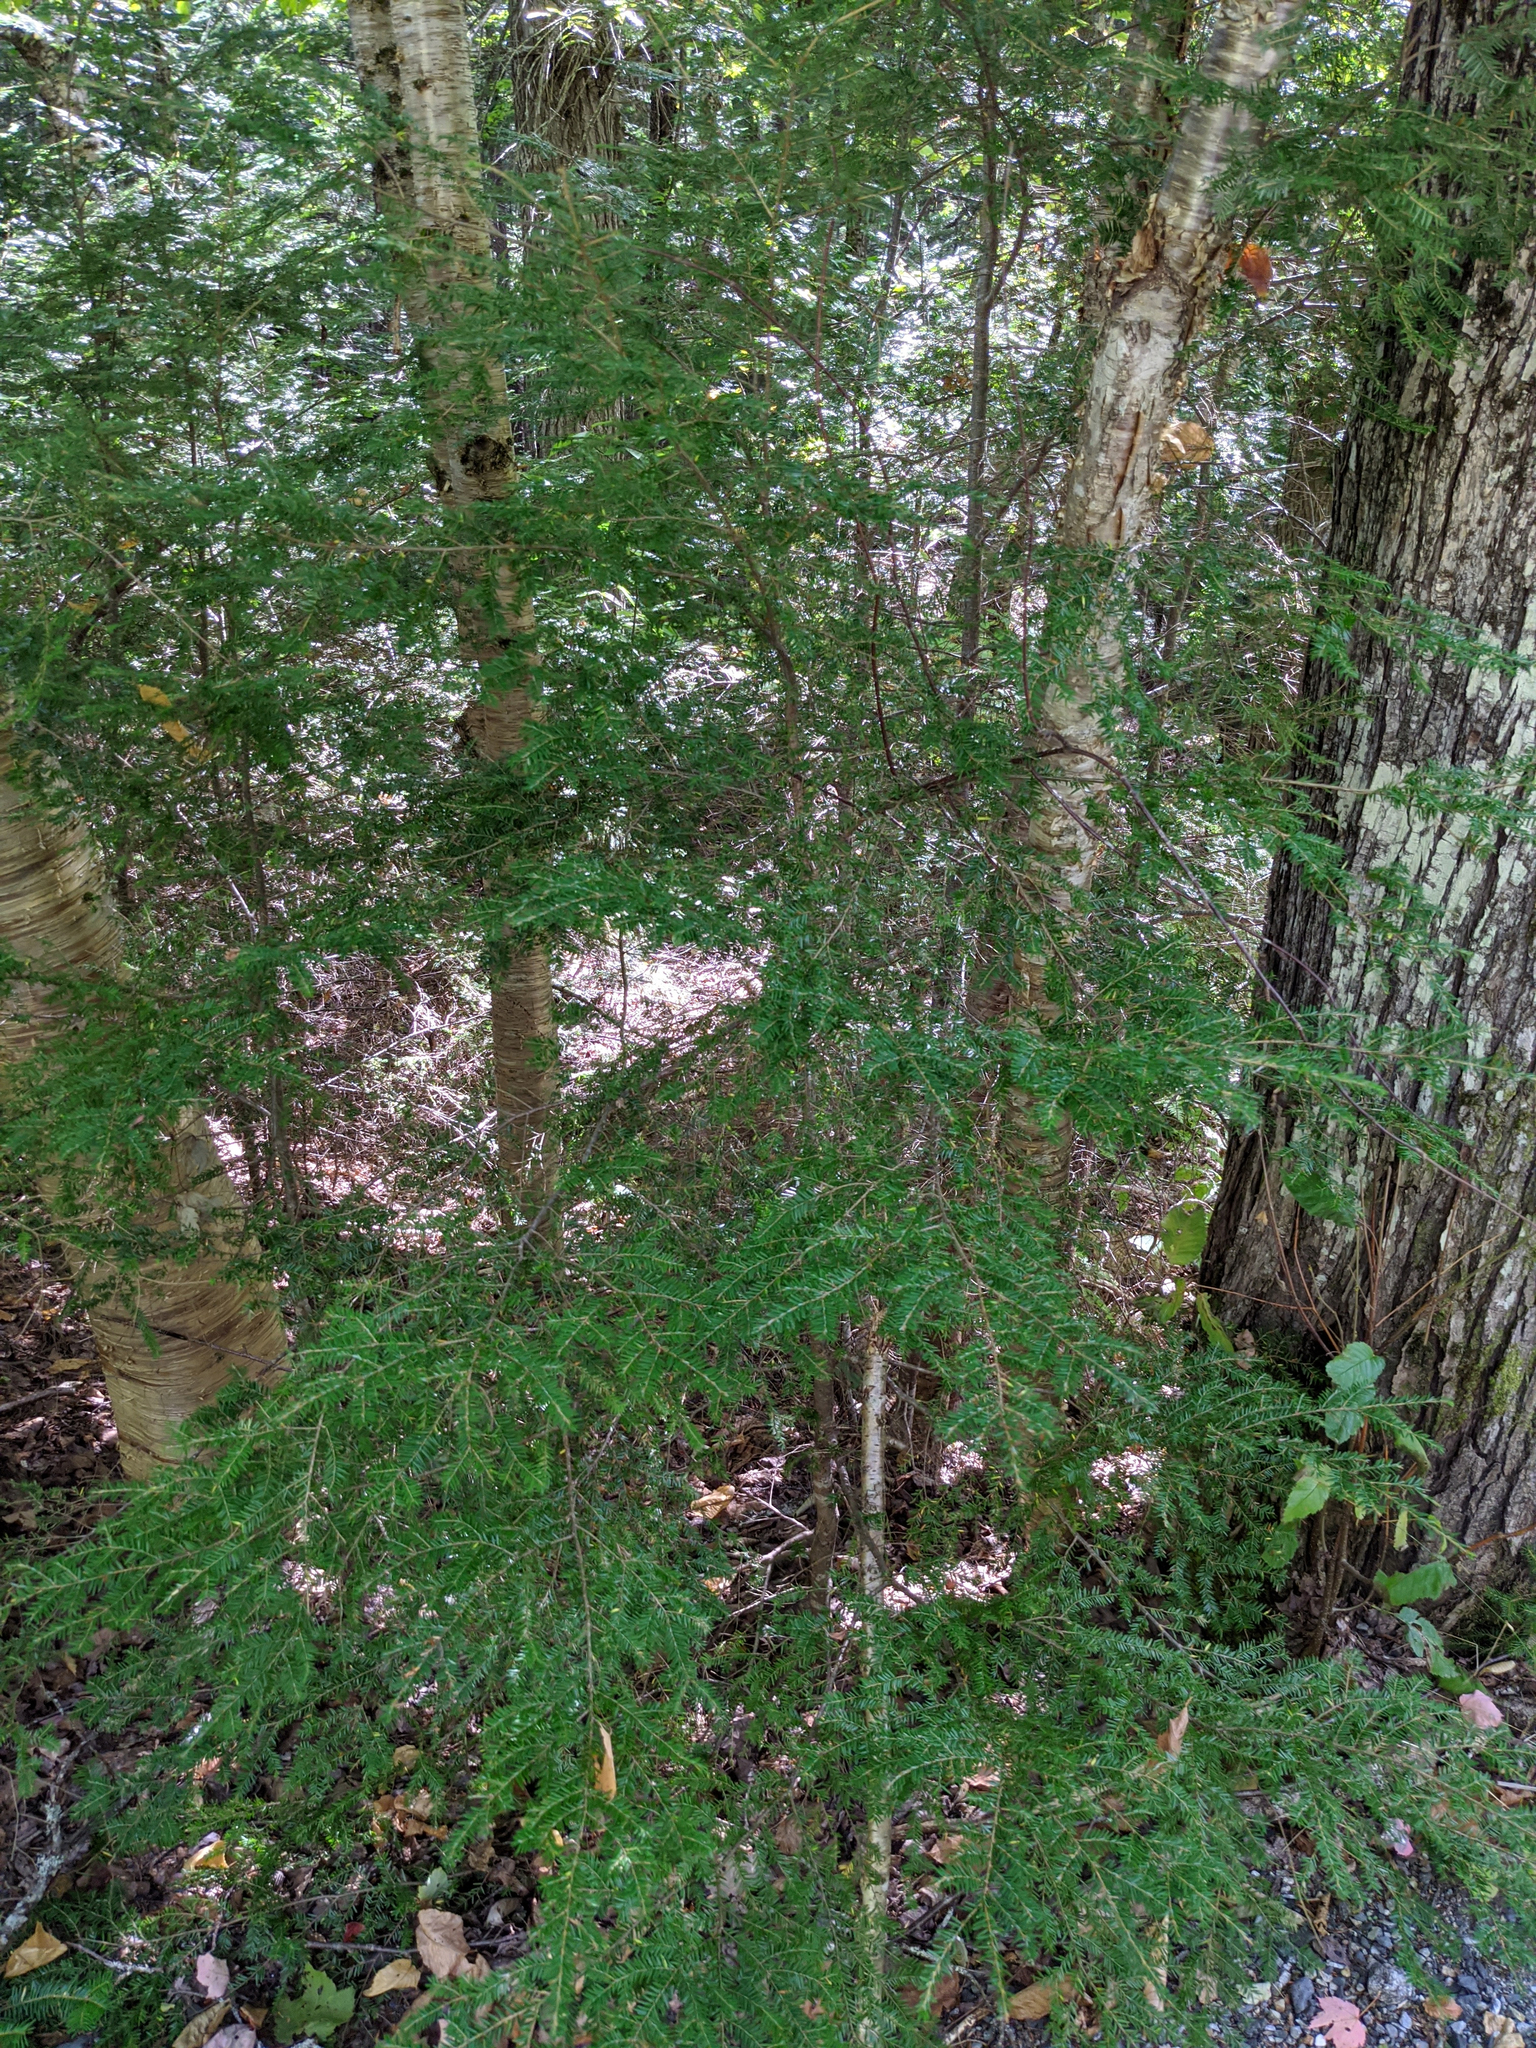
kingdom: Plantae
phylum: Tracheophyta
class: Pinopsida
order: Pinales
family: Pinaceae
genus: Tsuga
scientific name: Tsuga canadensis
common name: Eastern hemlock
